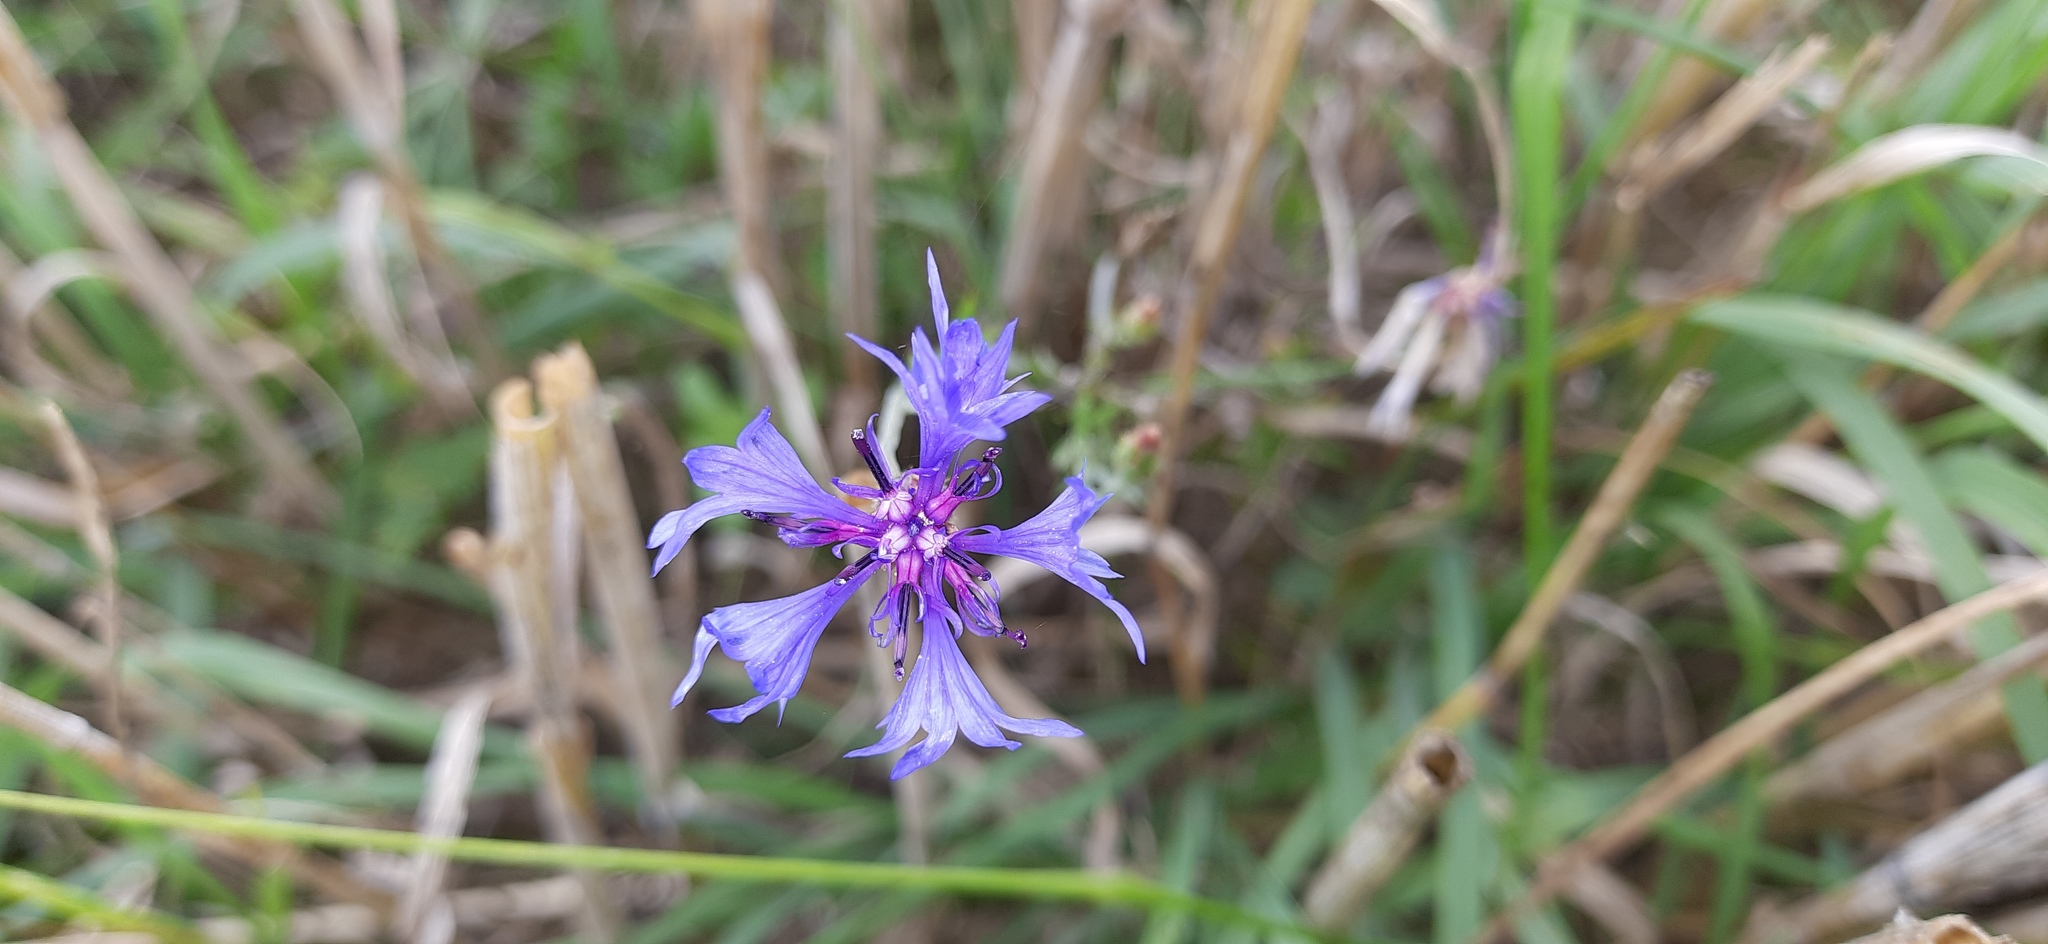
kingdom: Plantae
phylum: Tracheophyta
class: Magnoliopsida
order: Asterales
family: Asteraceae
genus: Centaurea
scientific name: Centaurea cyanus
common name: Cornflower
